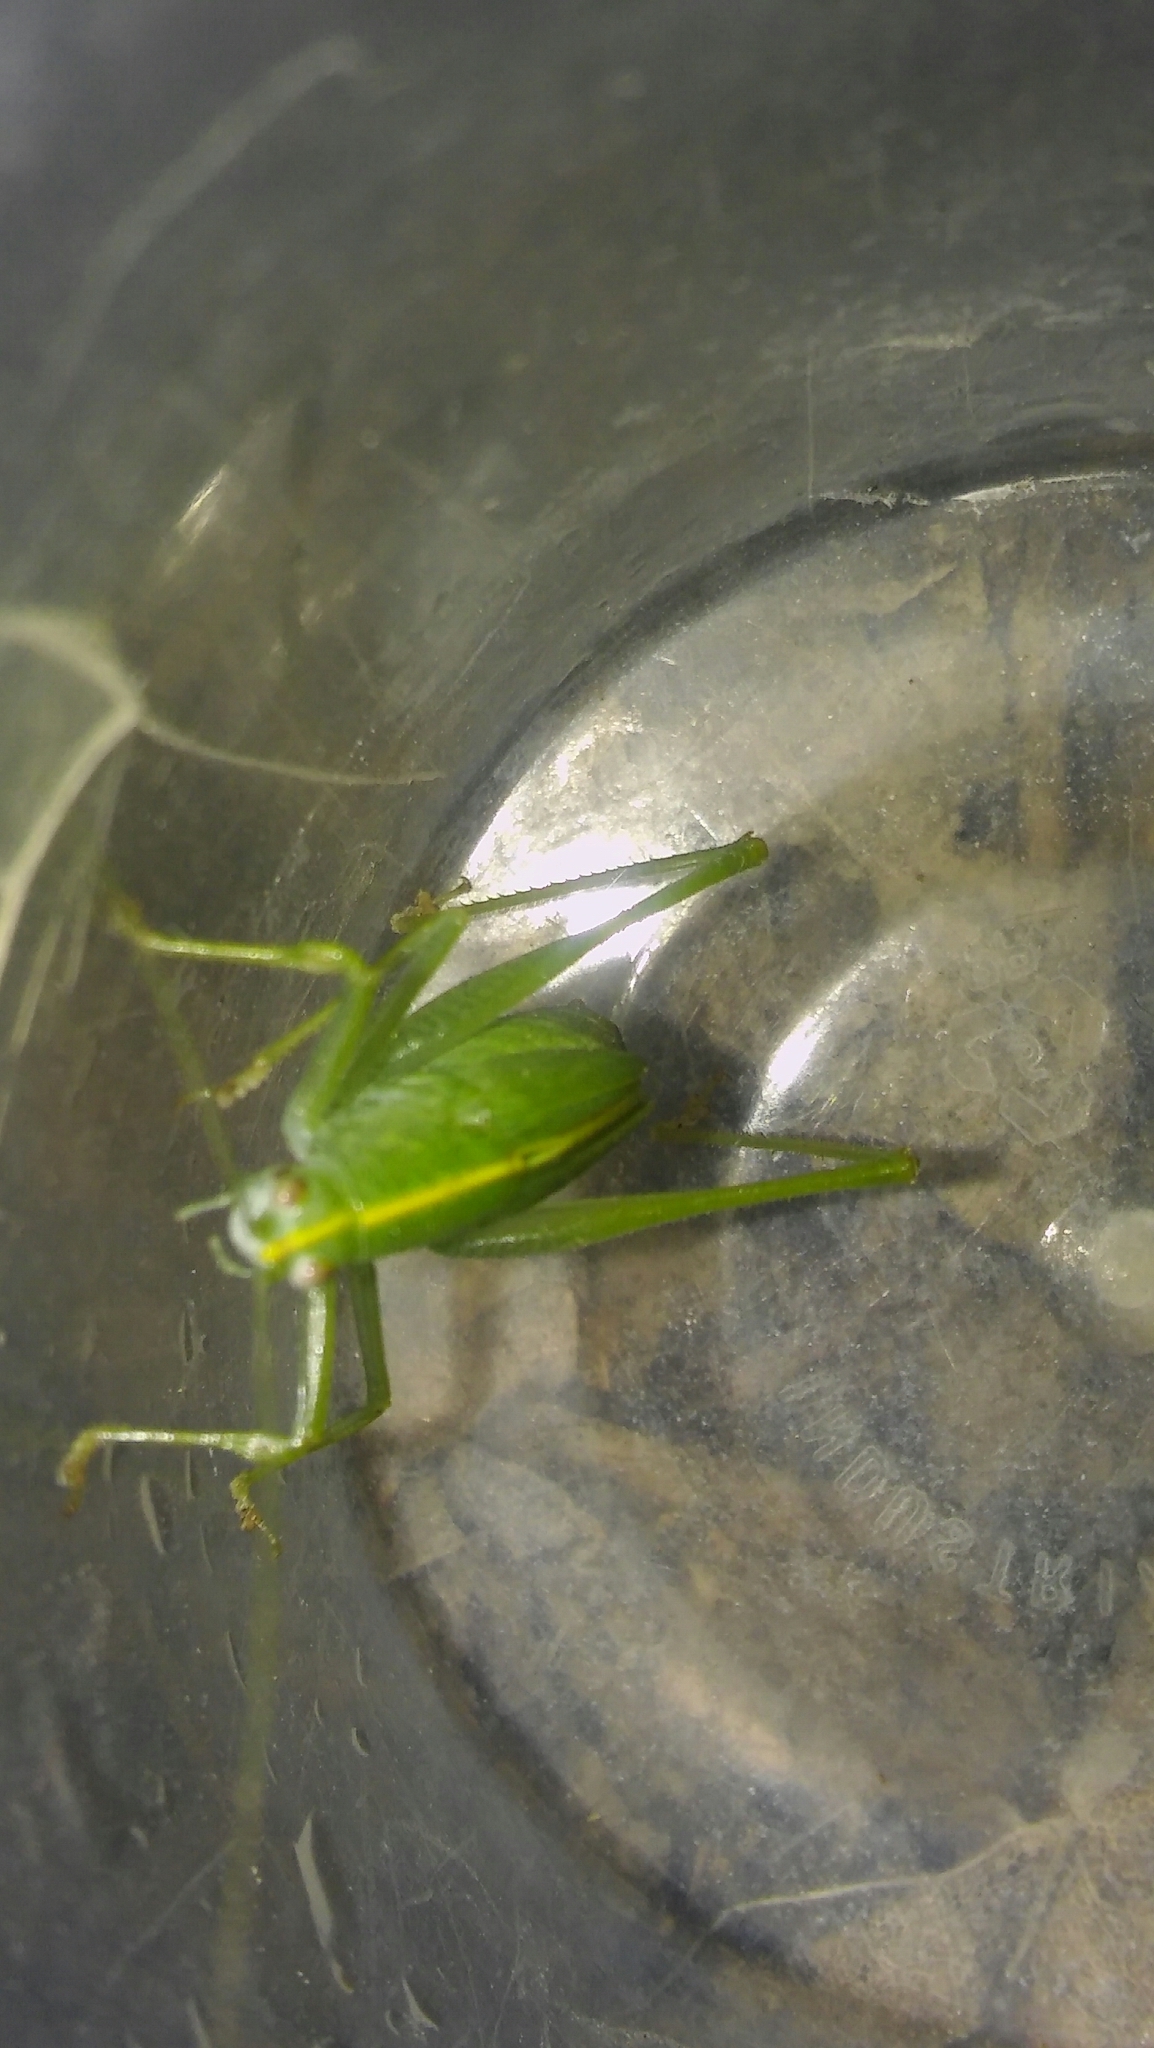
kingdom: Animalia
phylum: Arthropoda
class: Insecta
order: Orthoptera
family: Tettigoniidae
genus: Grammadera
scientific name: Grammadera clara
